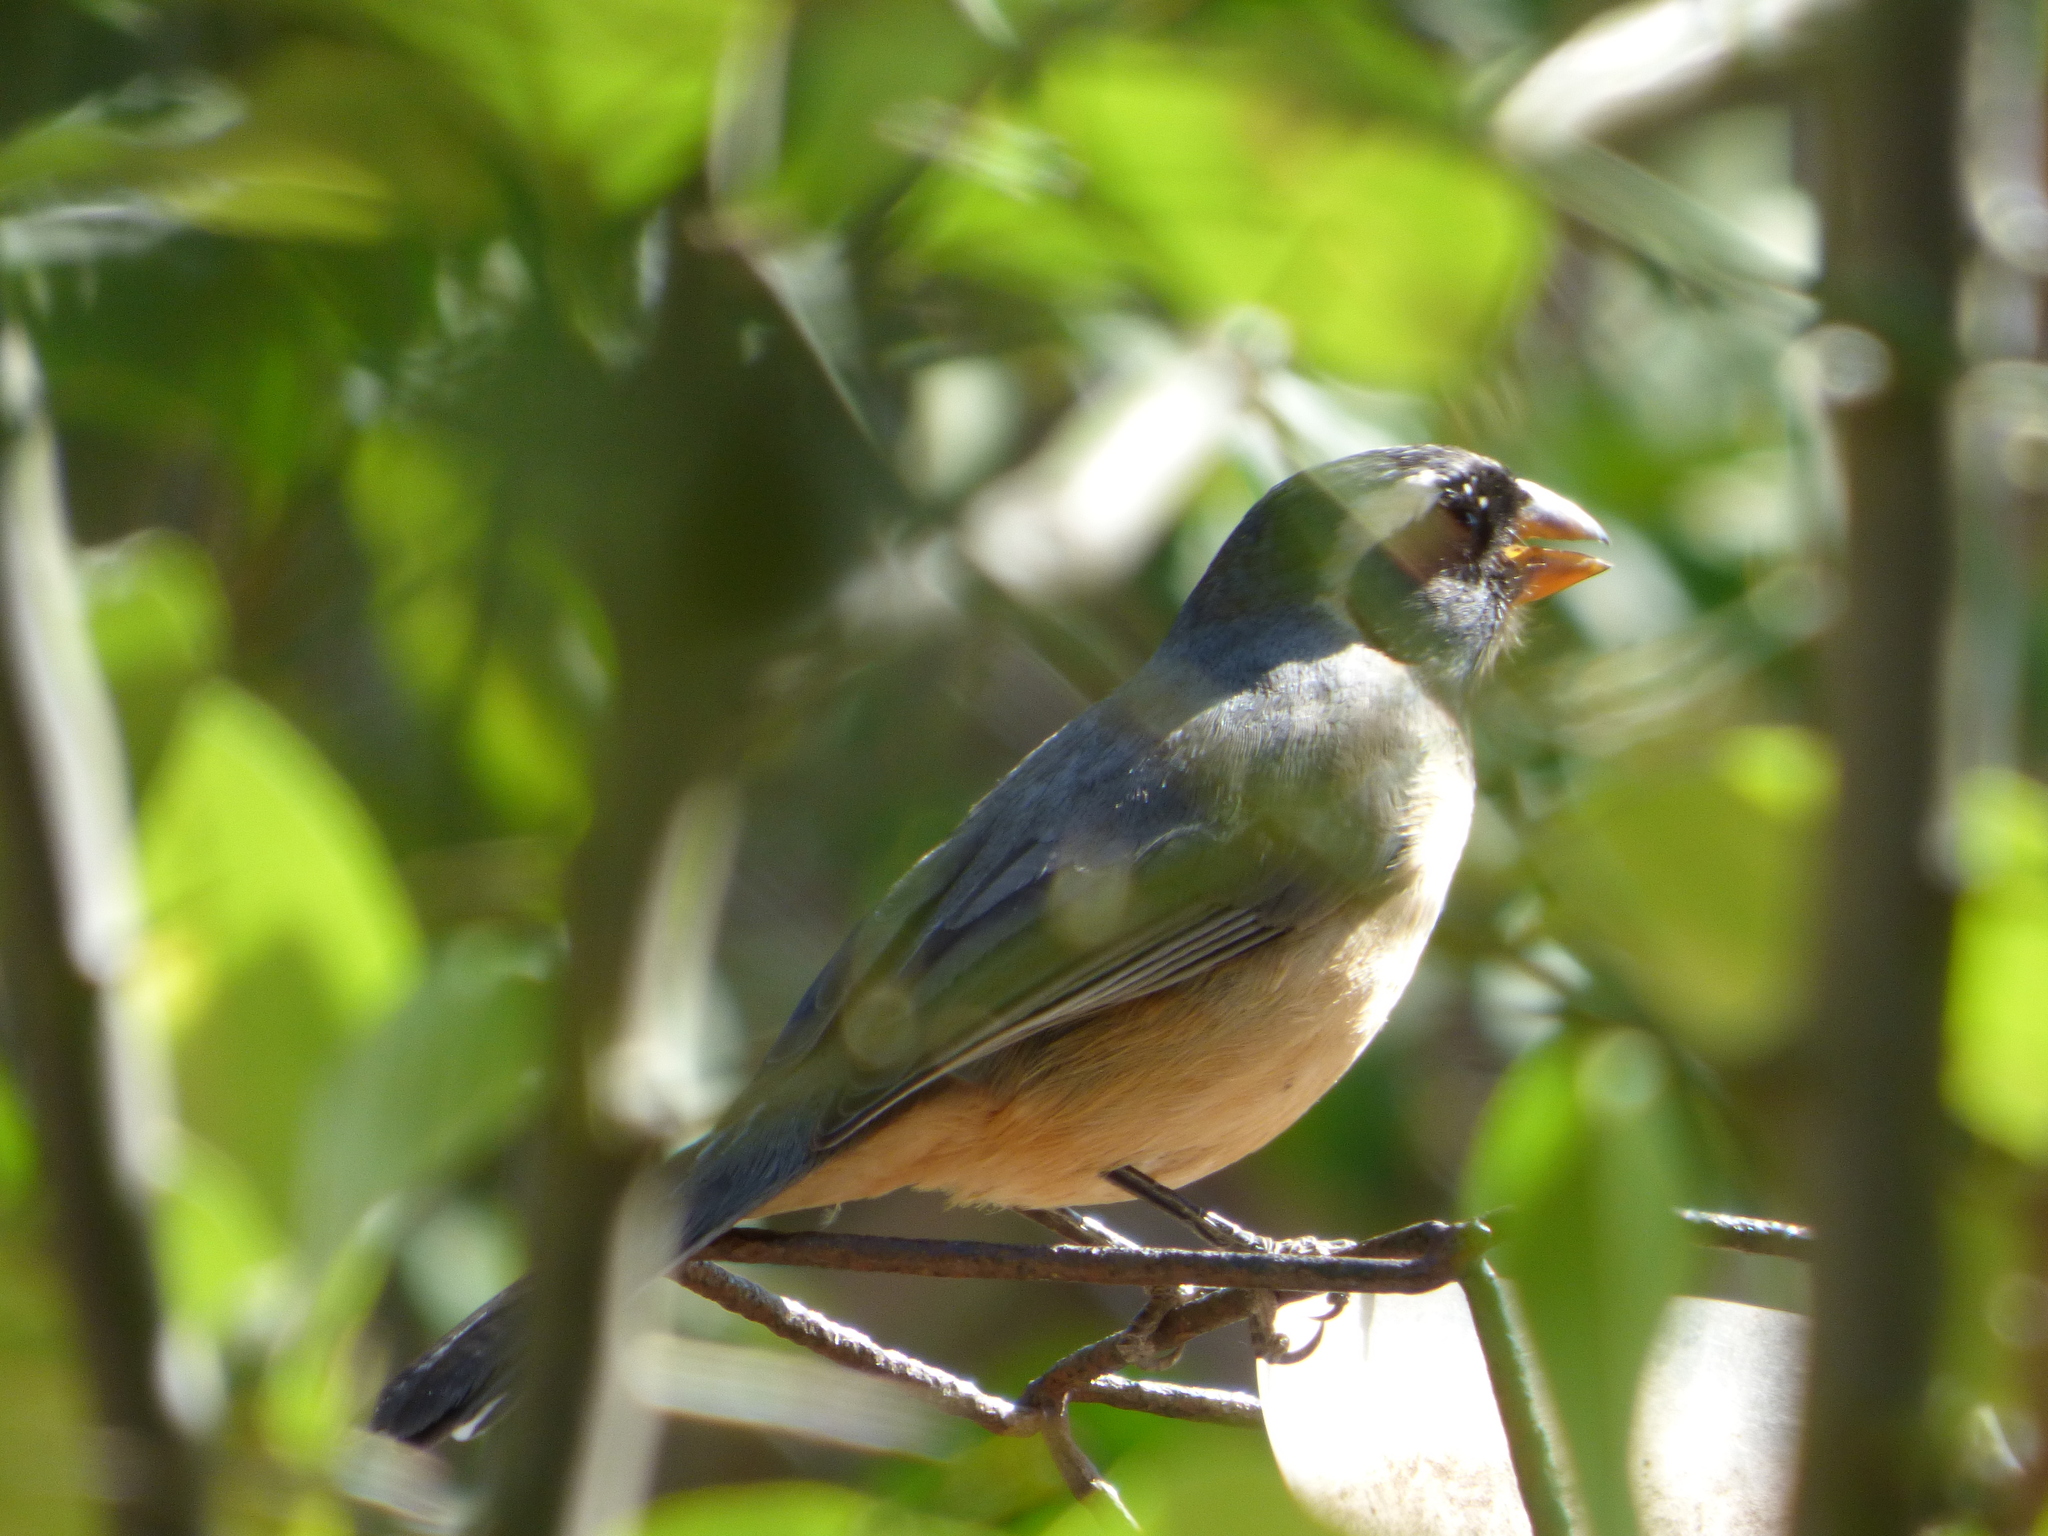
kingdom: Animalia
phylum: Chordata
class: Aves
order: Passeriformes
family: Thraupidae
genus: Saltator
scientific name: Saltator aurantiirostris
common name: Golden-billed saltator
